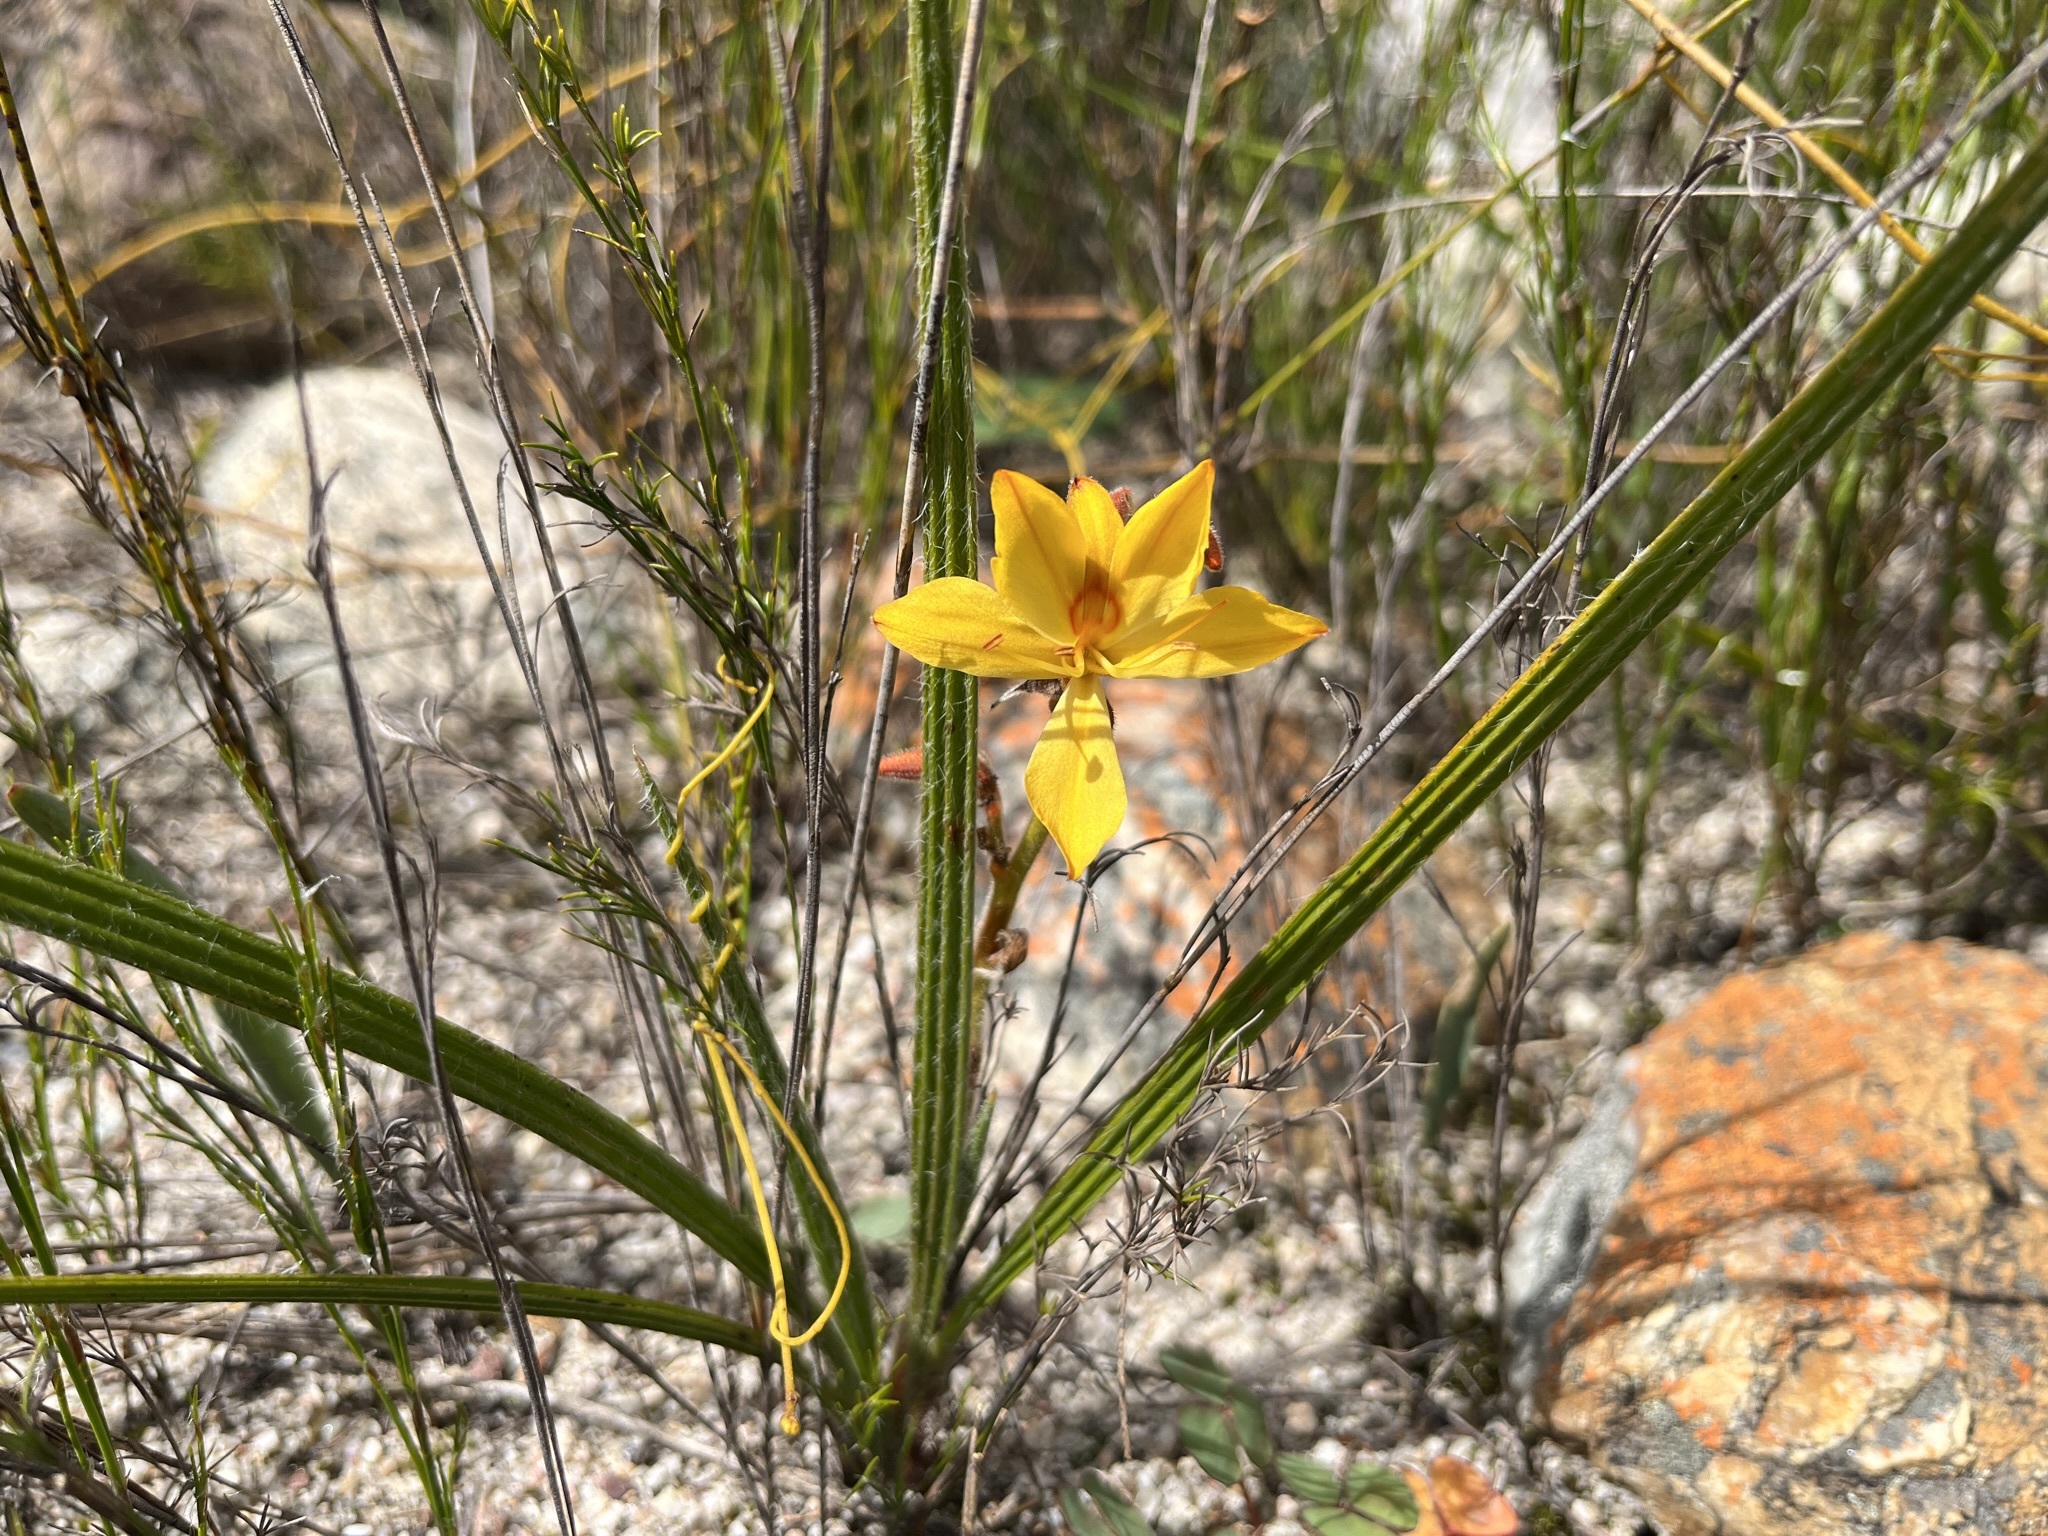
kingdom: Plantae
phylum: Tracheophyta
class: Liliopsida
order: Commelinales
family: Haemodoraceae
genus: Wachendorfia
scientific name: Wachendorfia paniculata
